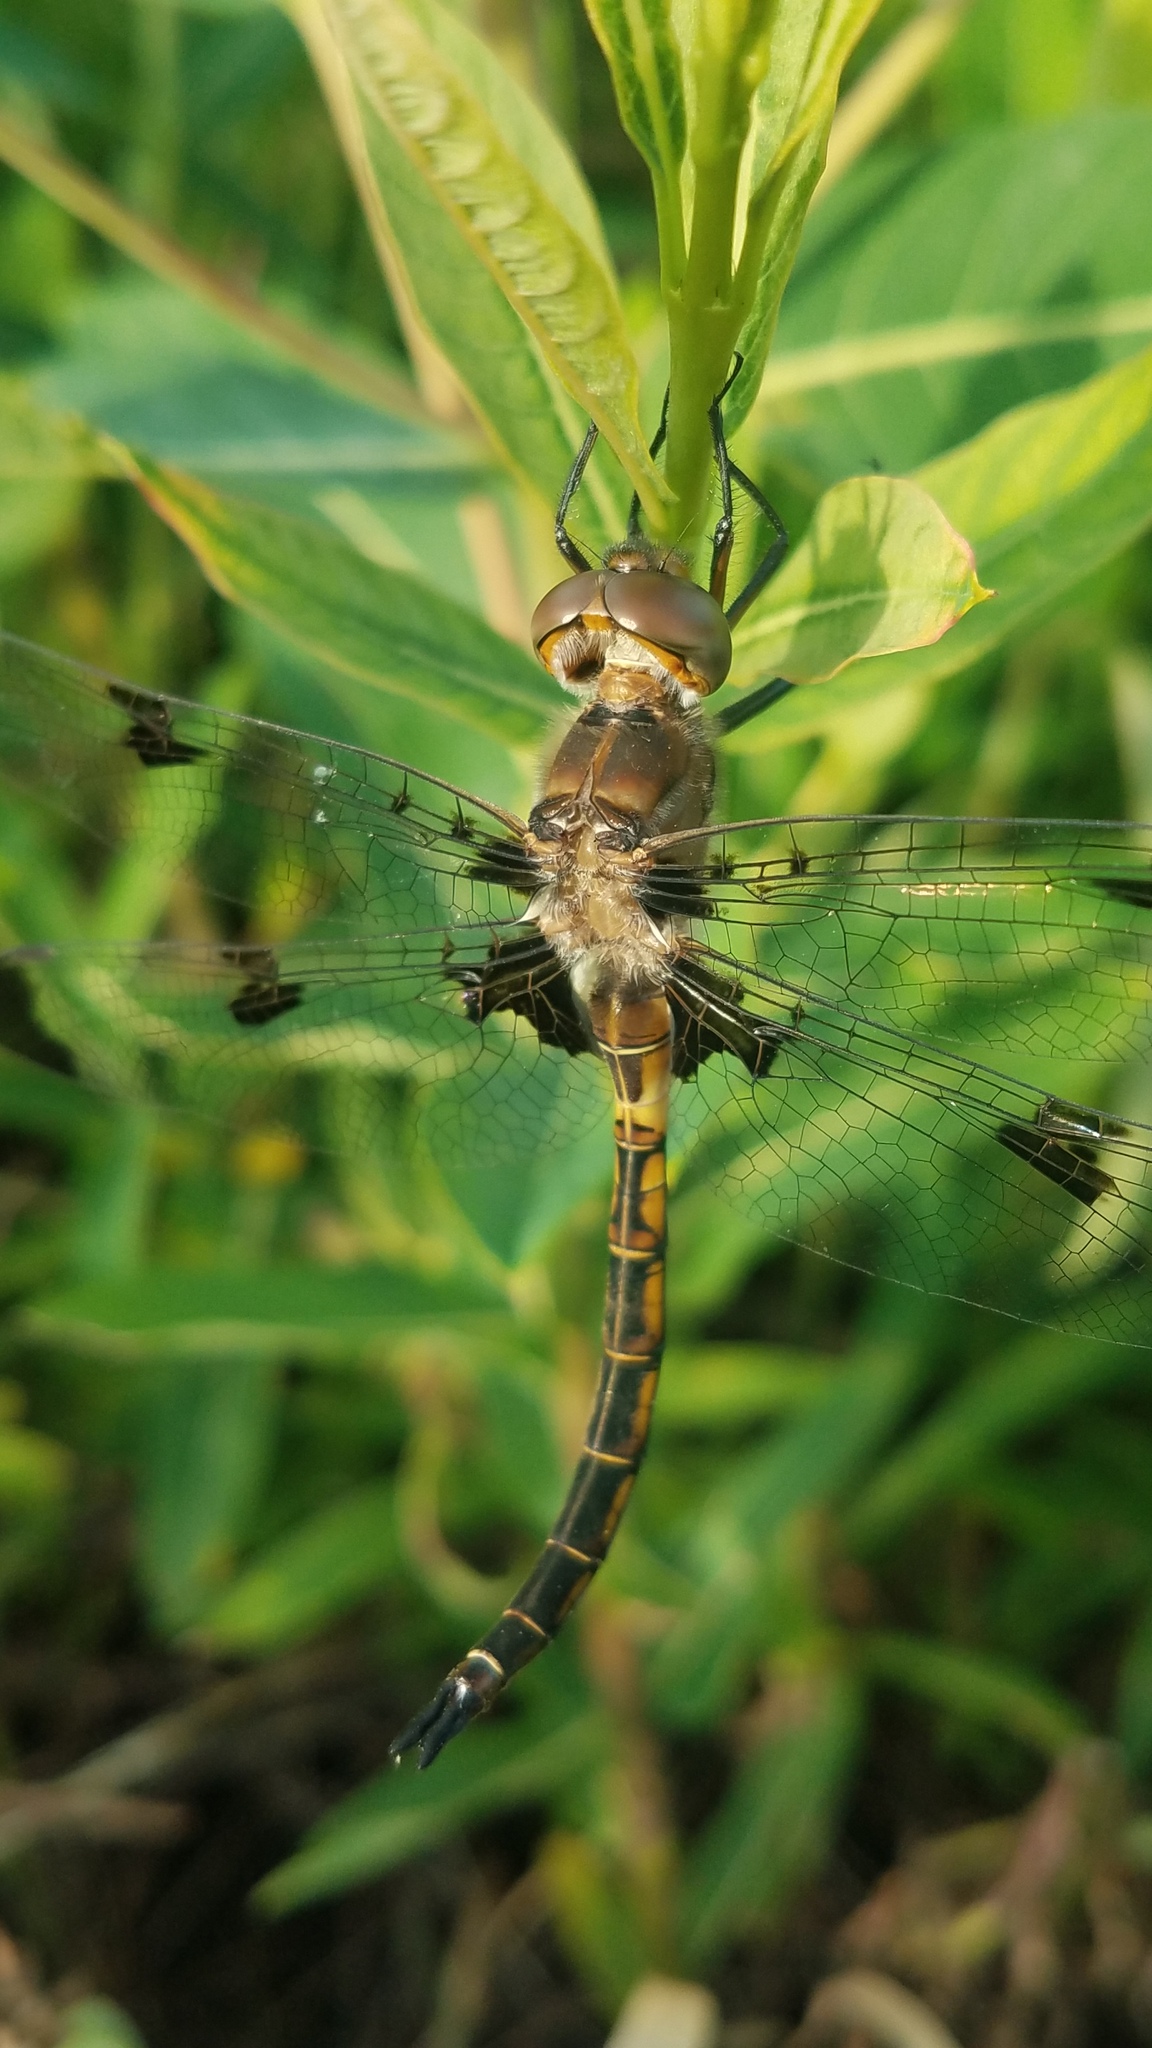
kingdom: Animalia
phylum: Arthropoda
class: Insecta
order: Odonata
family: Corduliidae
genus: Epitheca
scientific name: Epitheca princeps
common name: Prince baskettail
